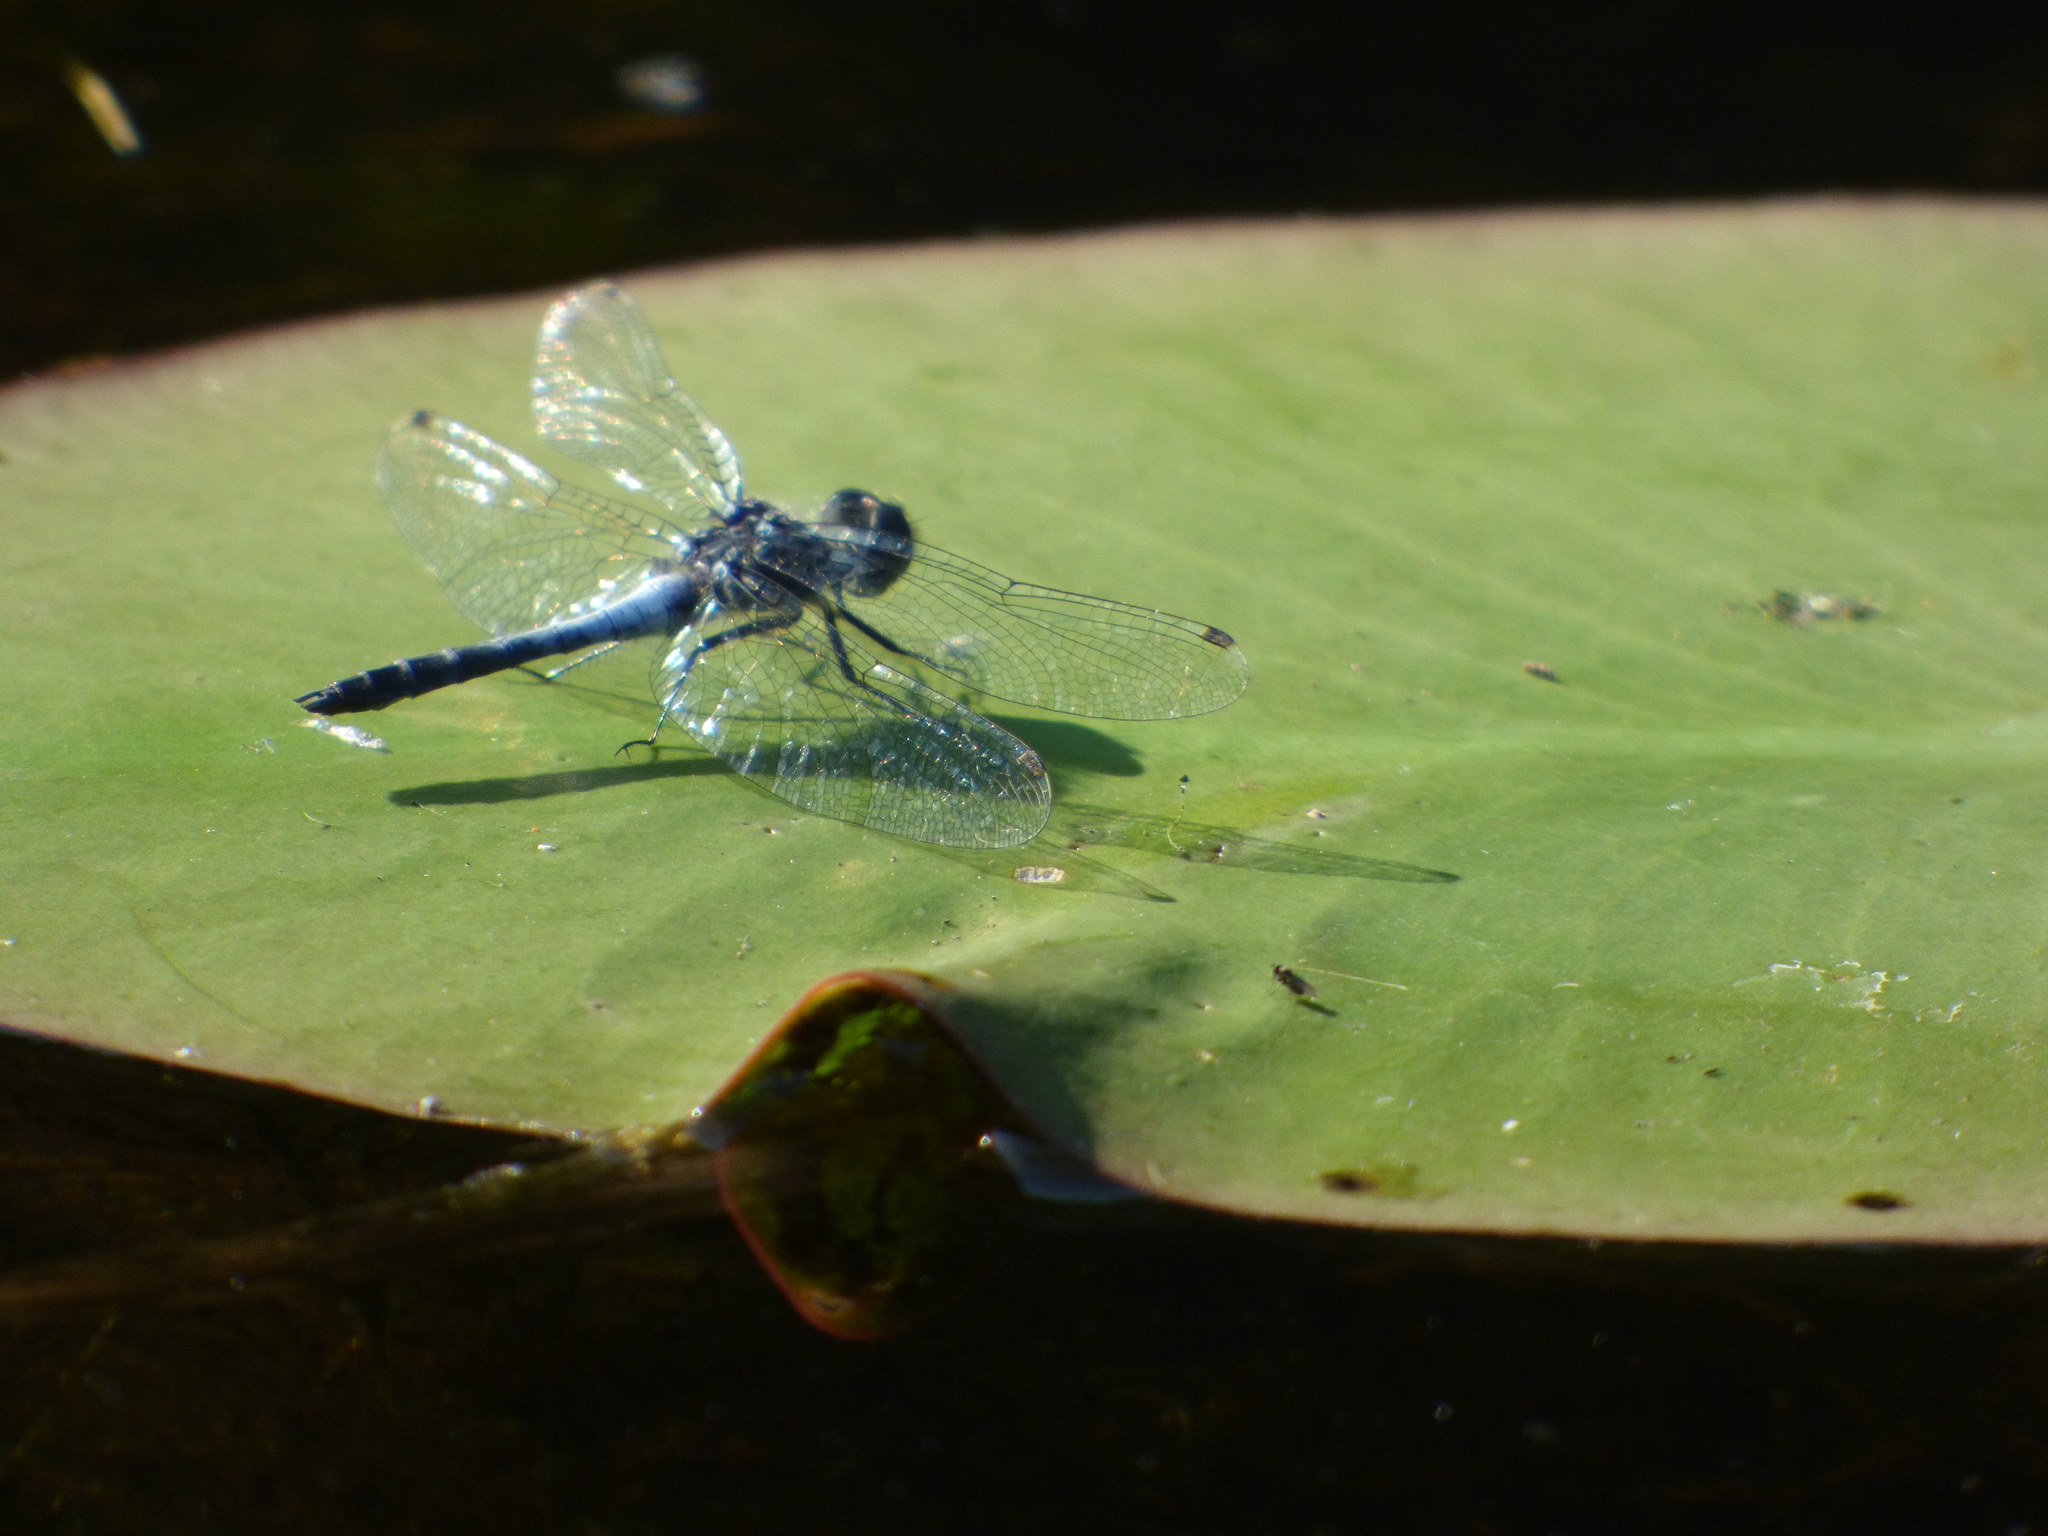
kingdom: Animalia
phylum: Arthropoda
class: Insecta
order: Odonata
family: Libellulidae
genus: Leucorrhinia
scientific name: Leucorrhinia frigida
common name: Frosted whiteface
